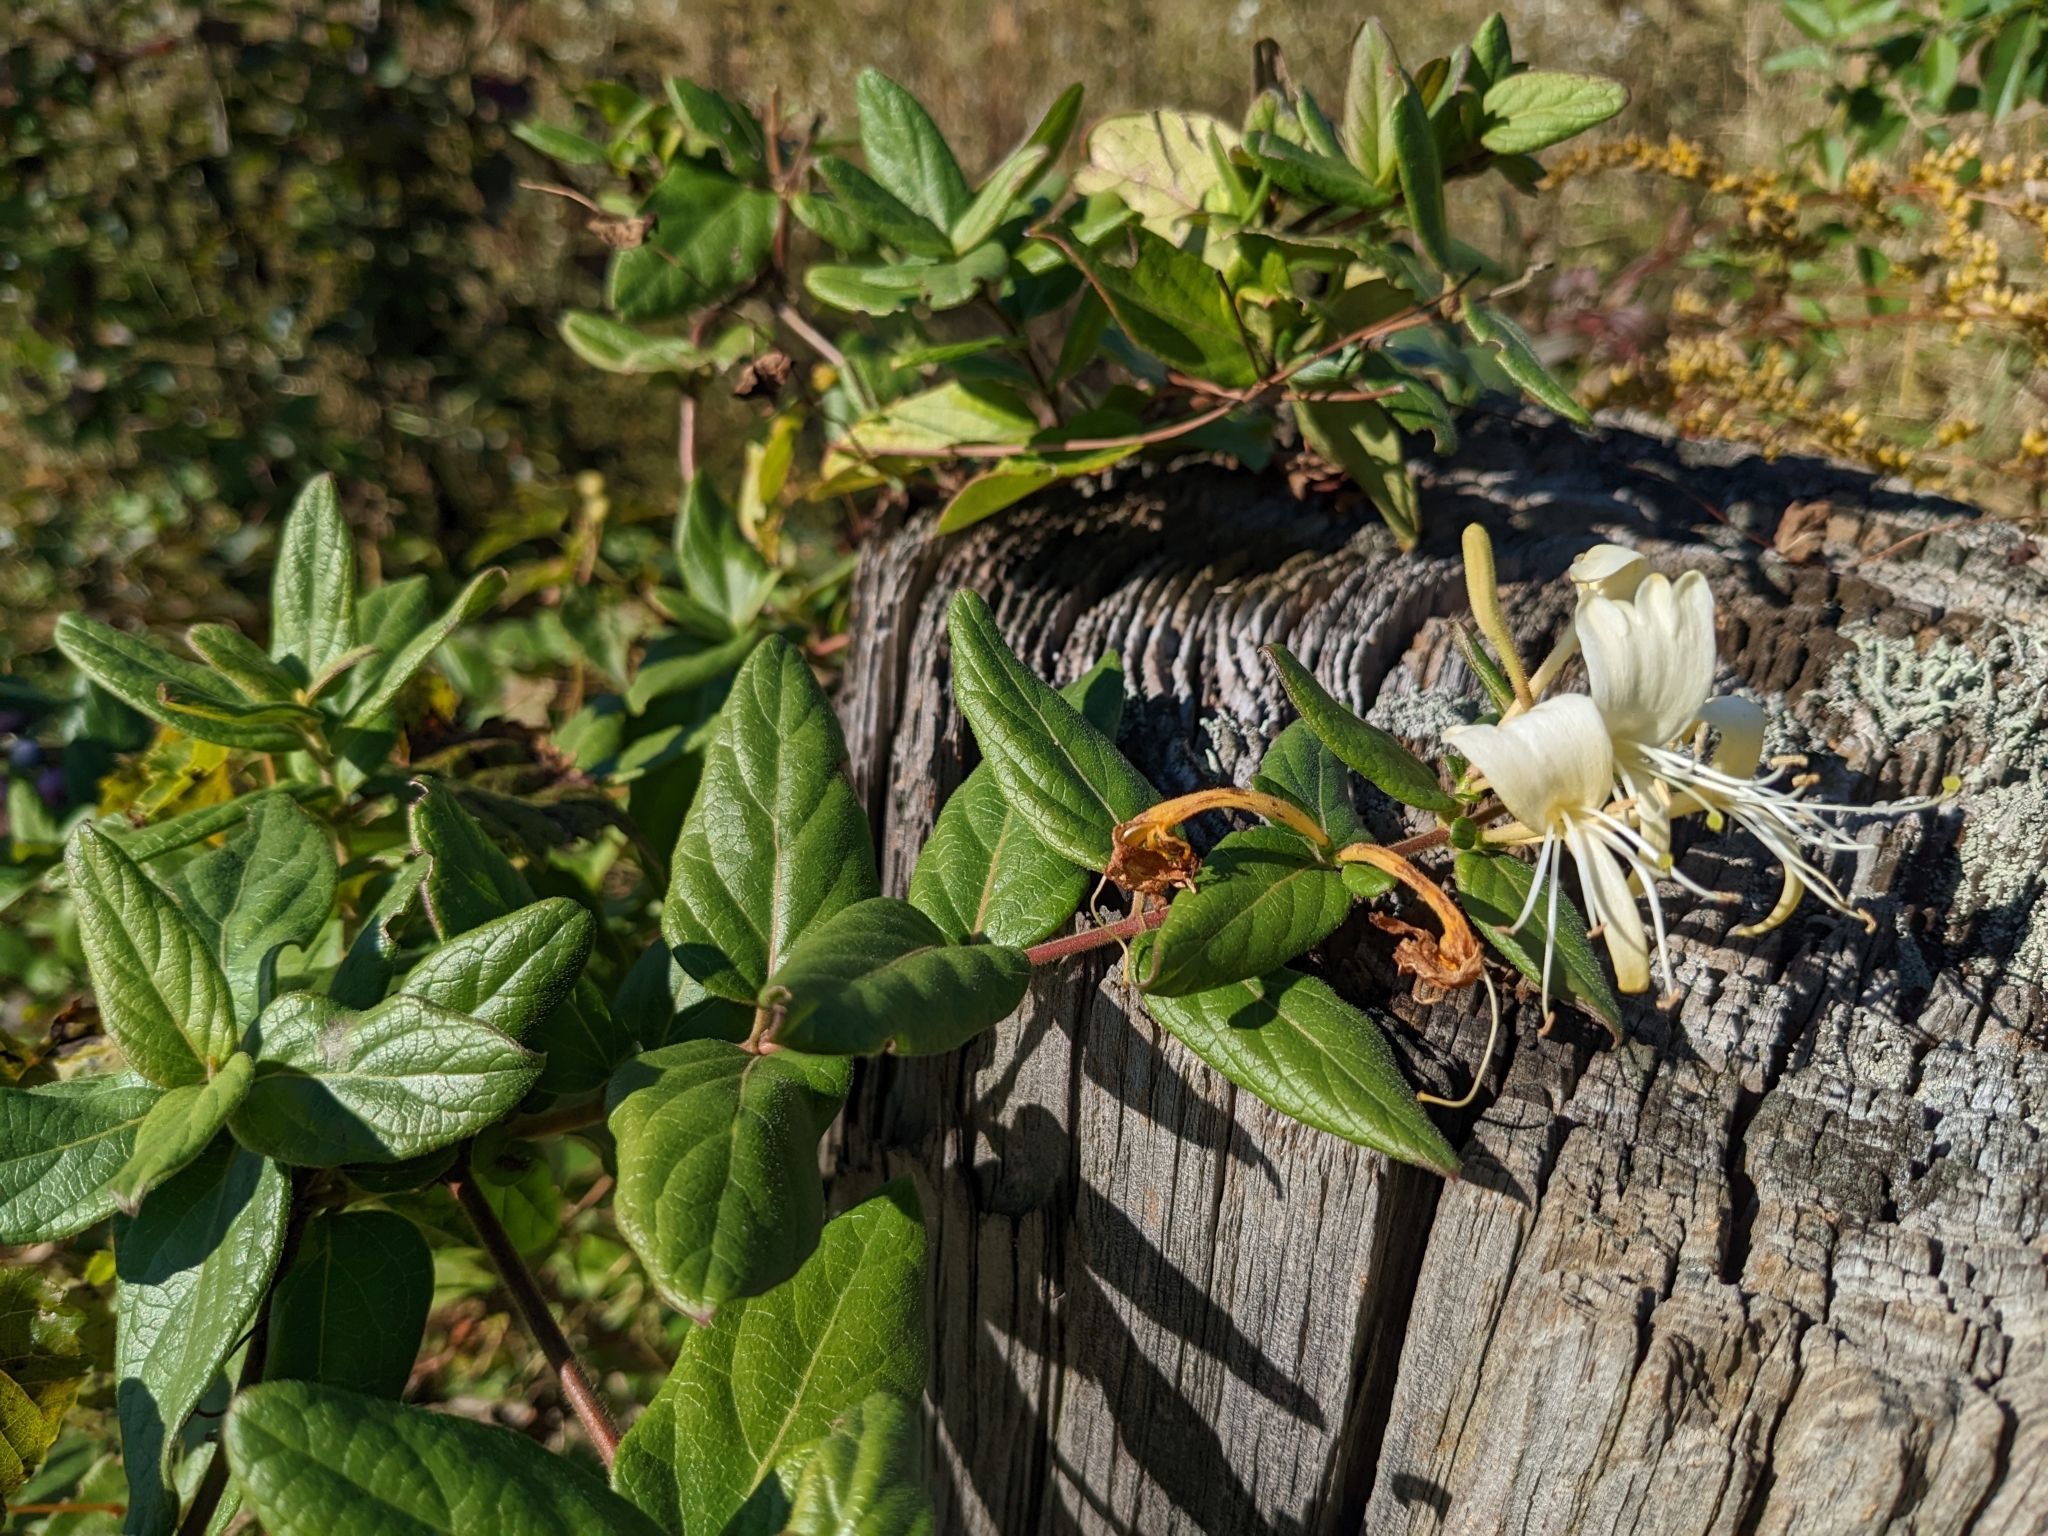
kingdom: Plantae
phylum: Tracheophyta
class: Magnoliopsida
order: Dipsacales
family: Caprifoliaceae
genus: Lonicera
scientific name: Lonicera japonica
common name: Japanese honeysuckle
